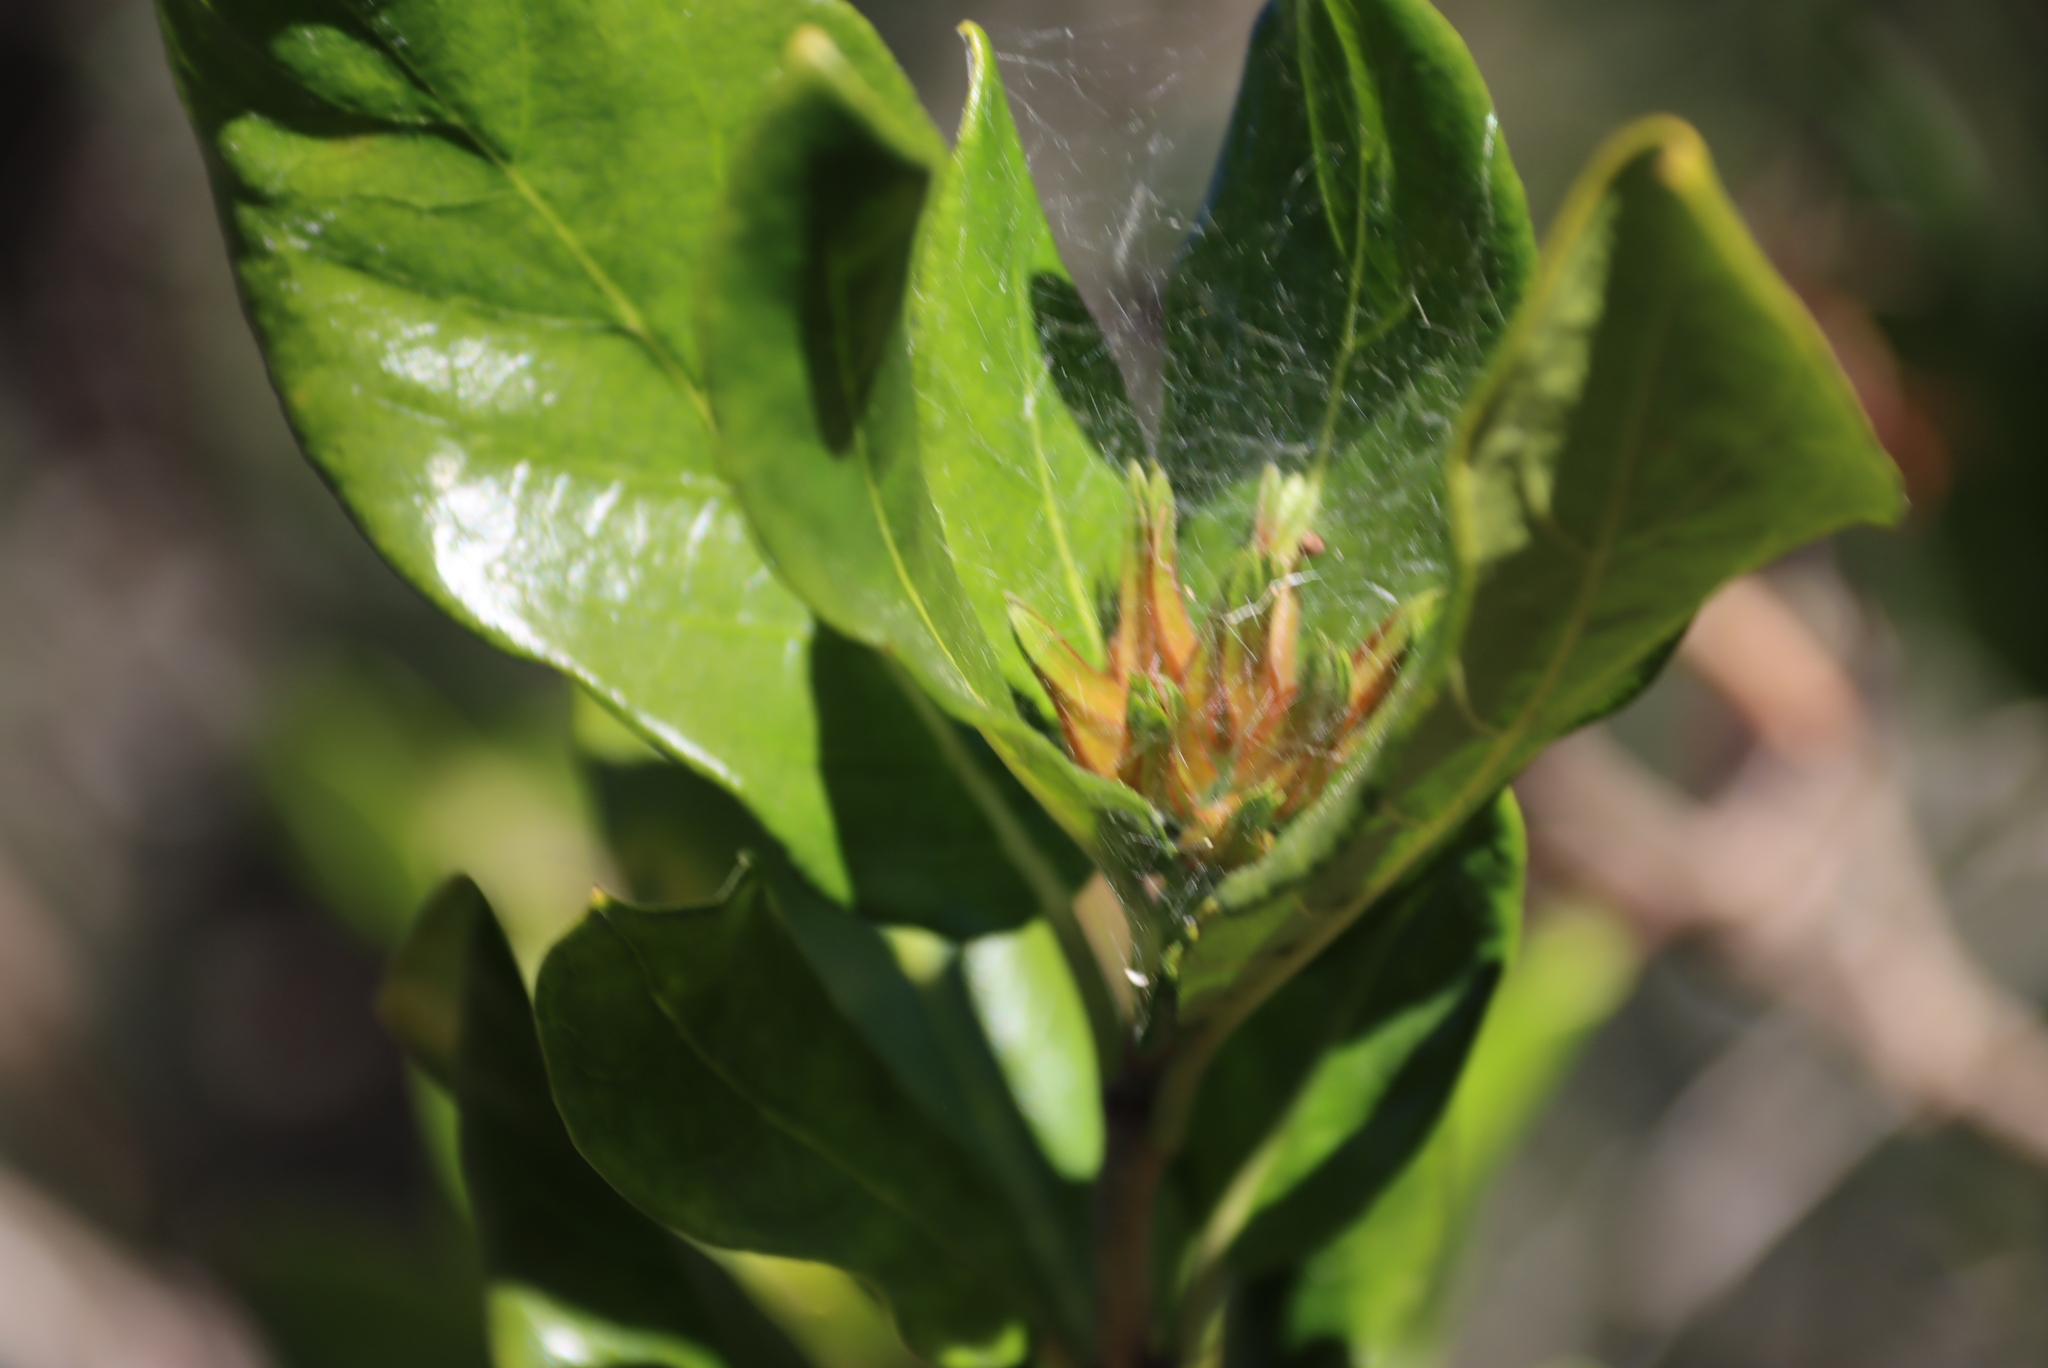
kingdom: Plantae
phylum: Tracheophyta
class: Magnoliopsida
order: Gentianales
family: Rubiaceae
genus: Burchellia
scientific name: Burchellia bubalina
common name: Wild pomegranate
